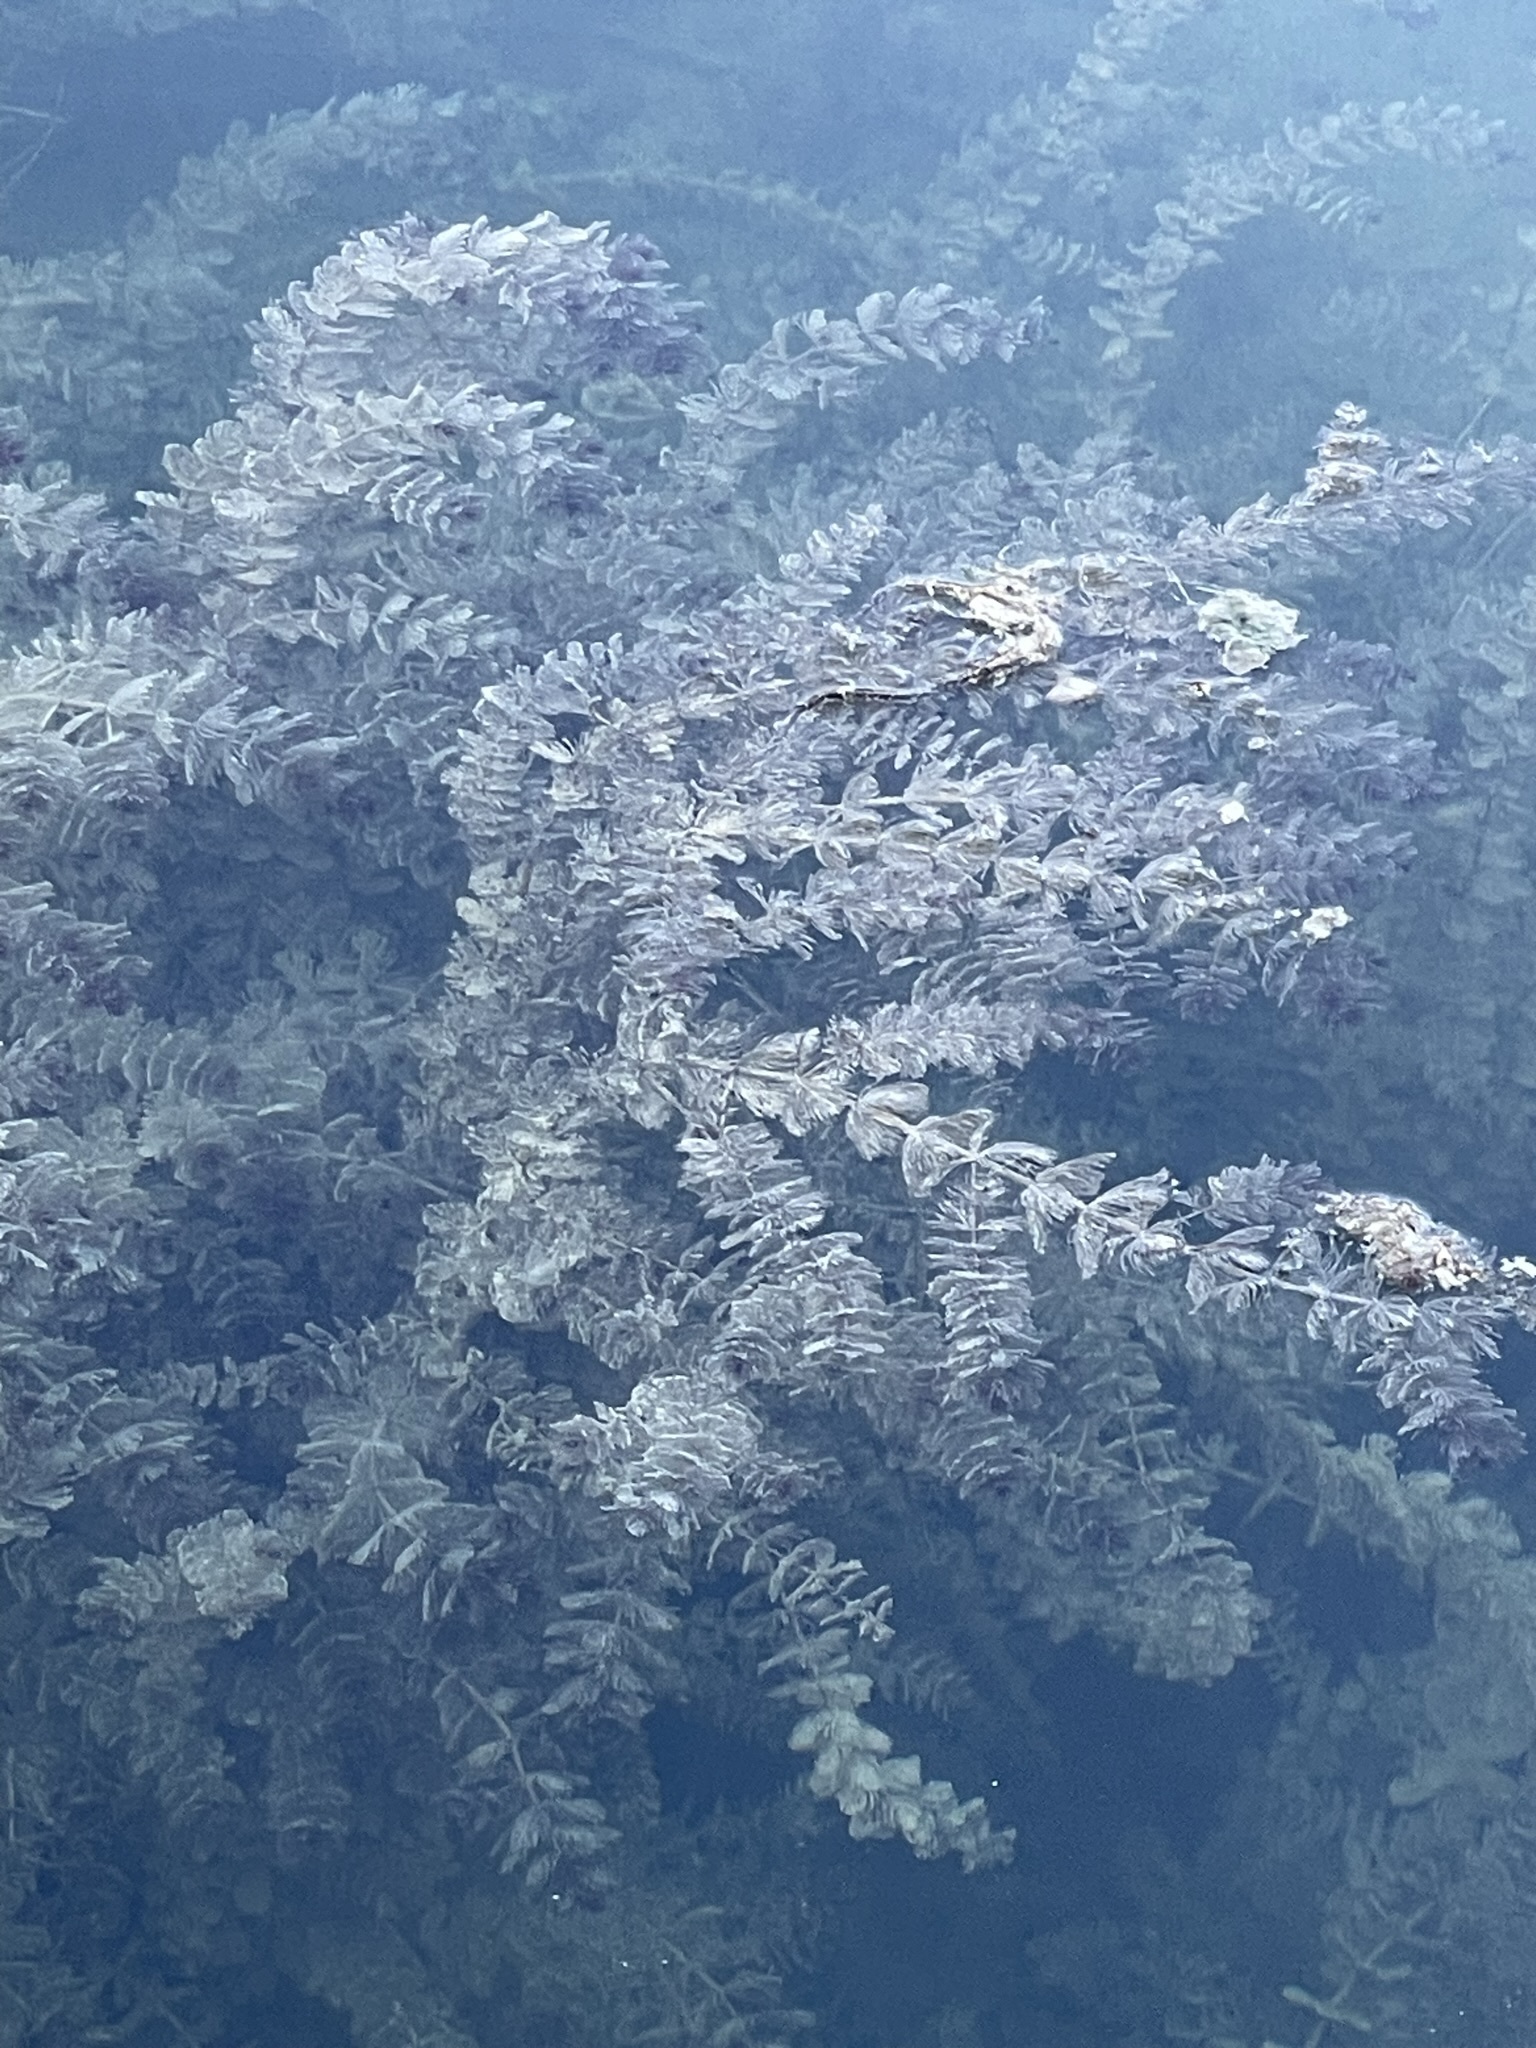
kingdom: Plantae
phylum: Tracheophyta
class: Magnoliopsida
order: Saxifragales
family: Haloragaceae
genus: Myriophyllum
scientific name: Myriophyllum spicatum
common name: Spiked water-milfoil
